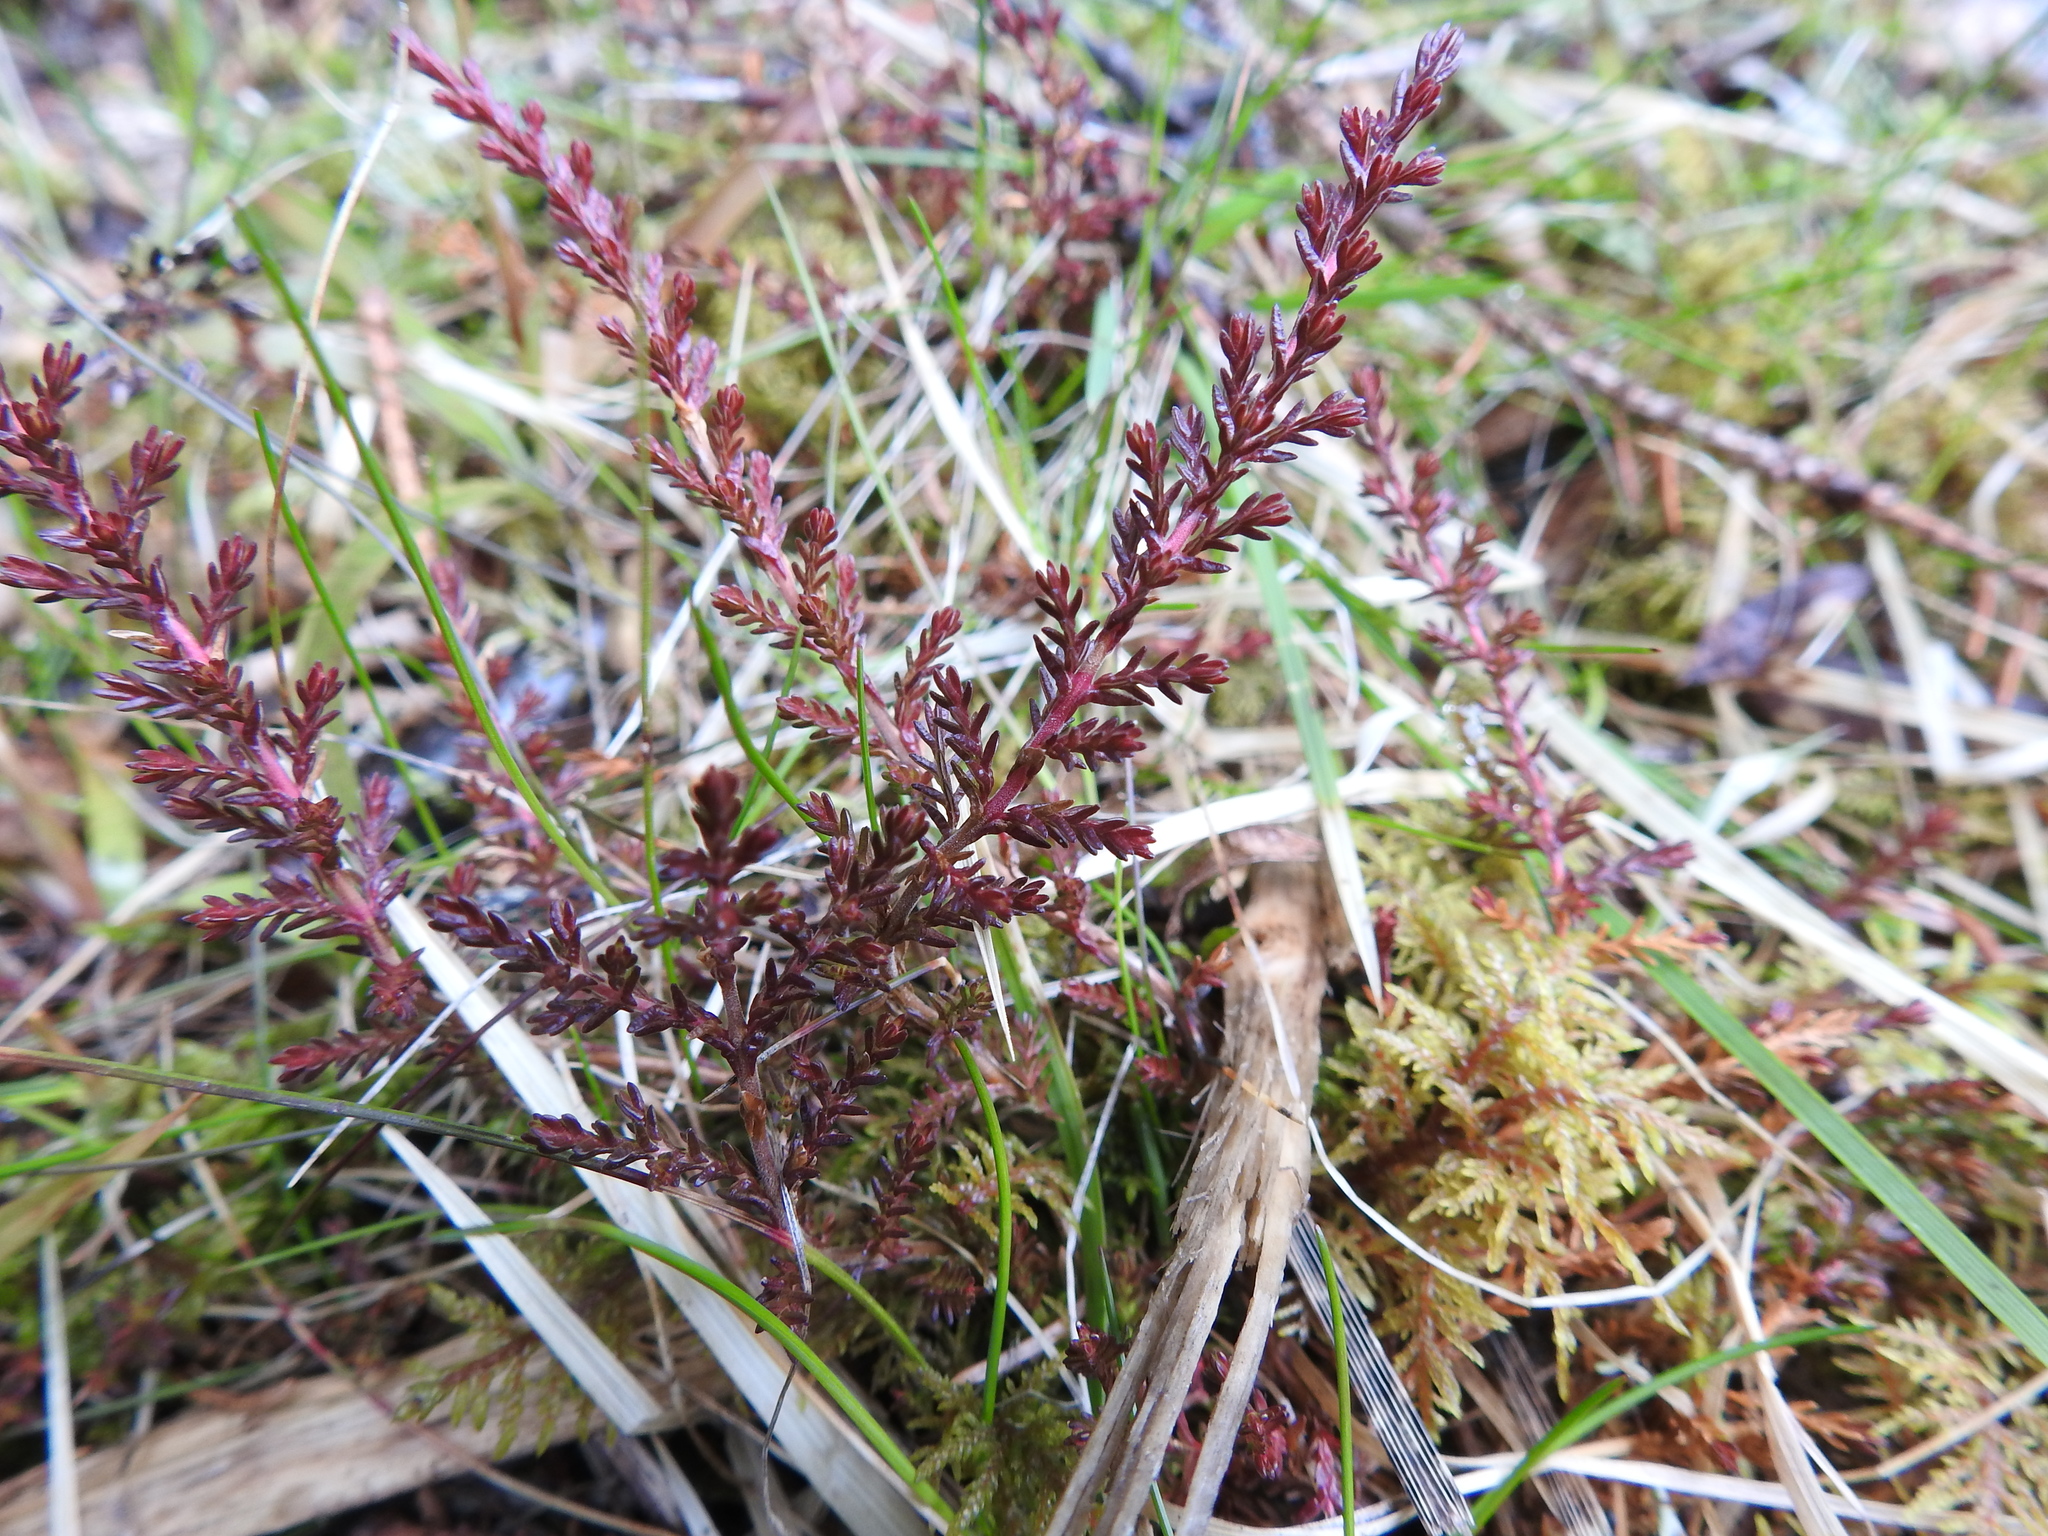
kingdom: Plantae
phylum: Tracheophyta
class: Magnoliopsida
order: Ericales
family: Ericaceae
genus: Calluna
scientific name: Calluna vulgaris
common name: Heather
